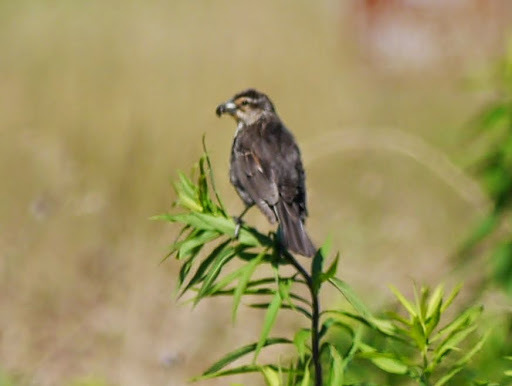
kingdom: Animalia
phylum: Chordata
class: Aves
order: Passeriformes
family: Icteridae
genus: Agelaius
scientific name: Agelaius phoeniceus
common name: Red-winged blackbird
